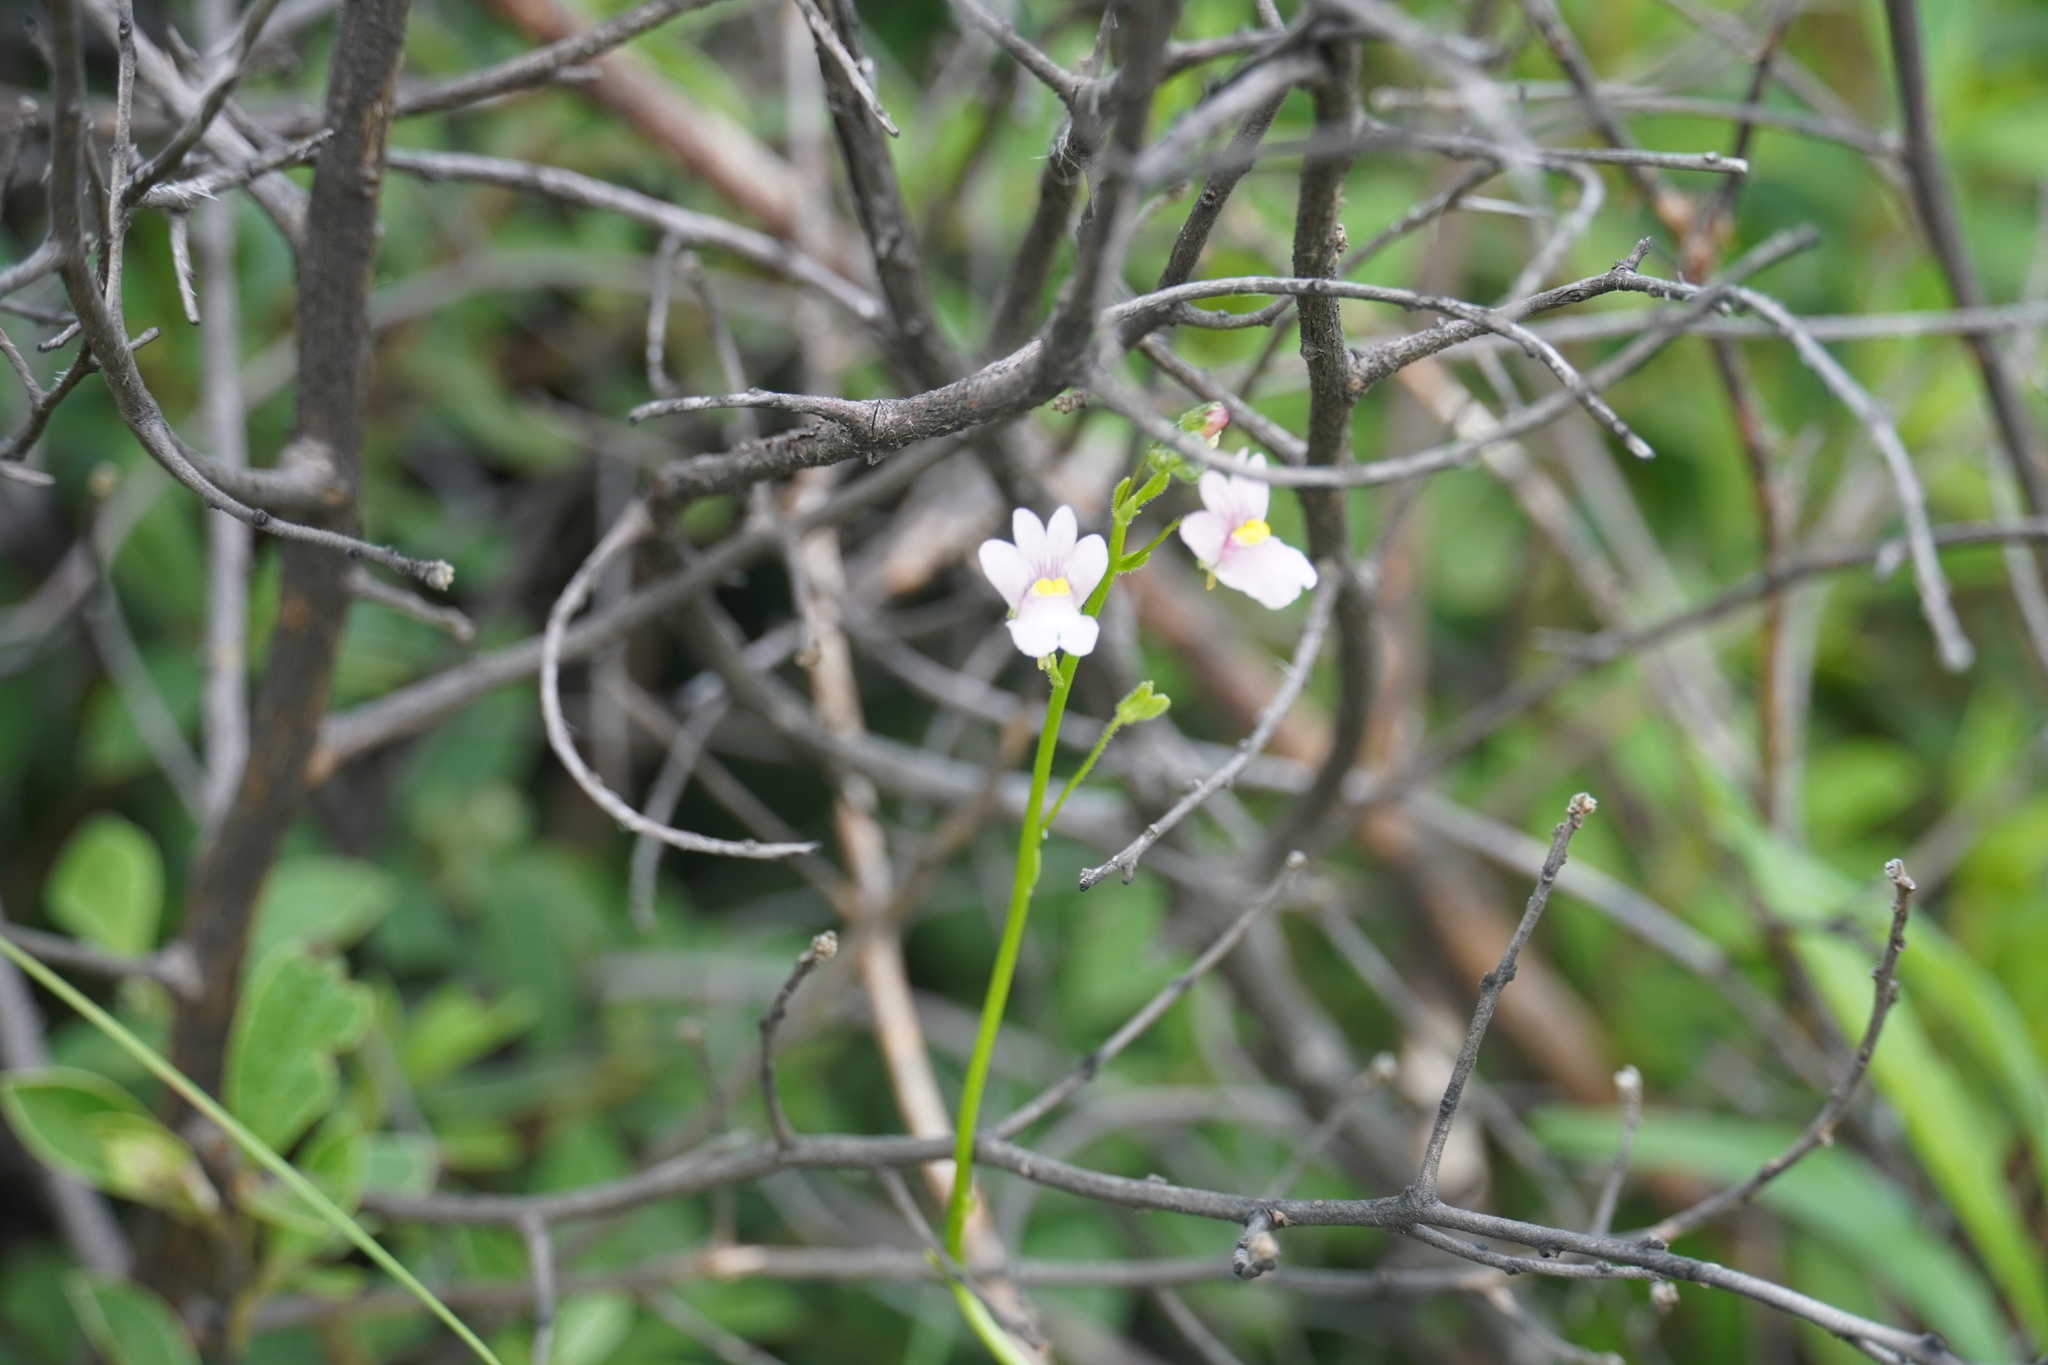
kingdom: Plantae
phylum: Tracheophyta
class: Magnoliopsida
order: Lamiales
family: Scrophulariaceae
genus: Nemesia
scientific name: Nemesia fruticans
